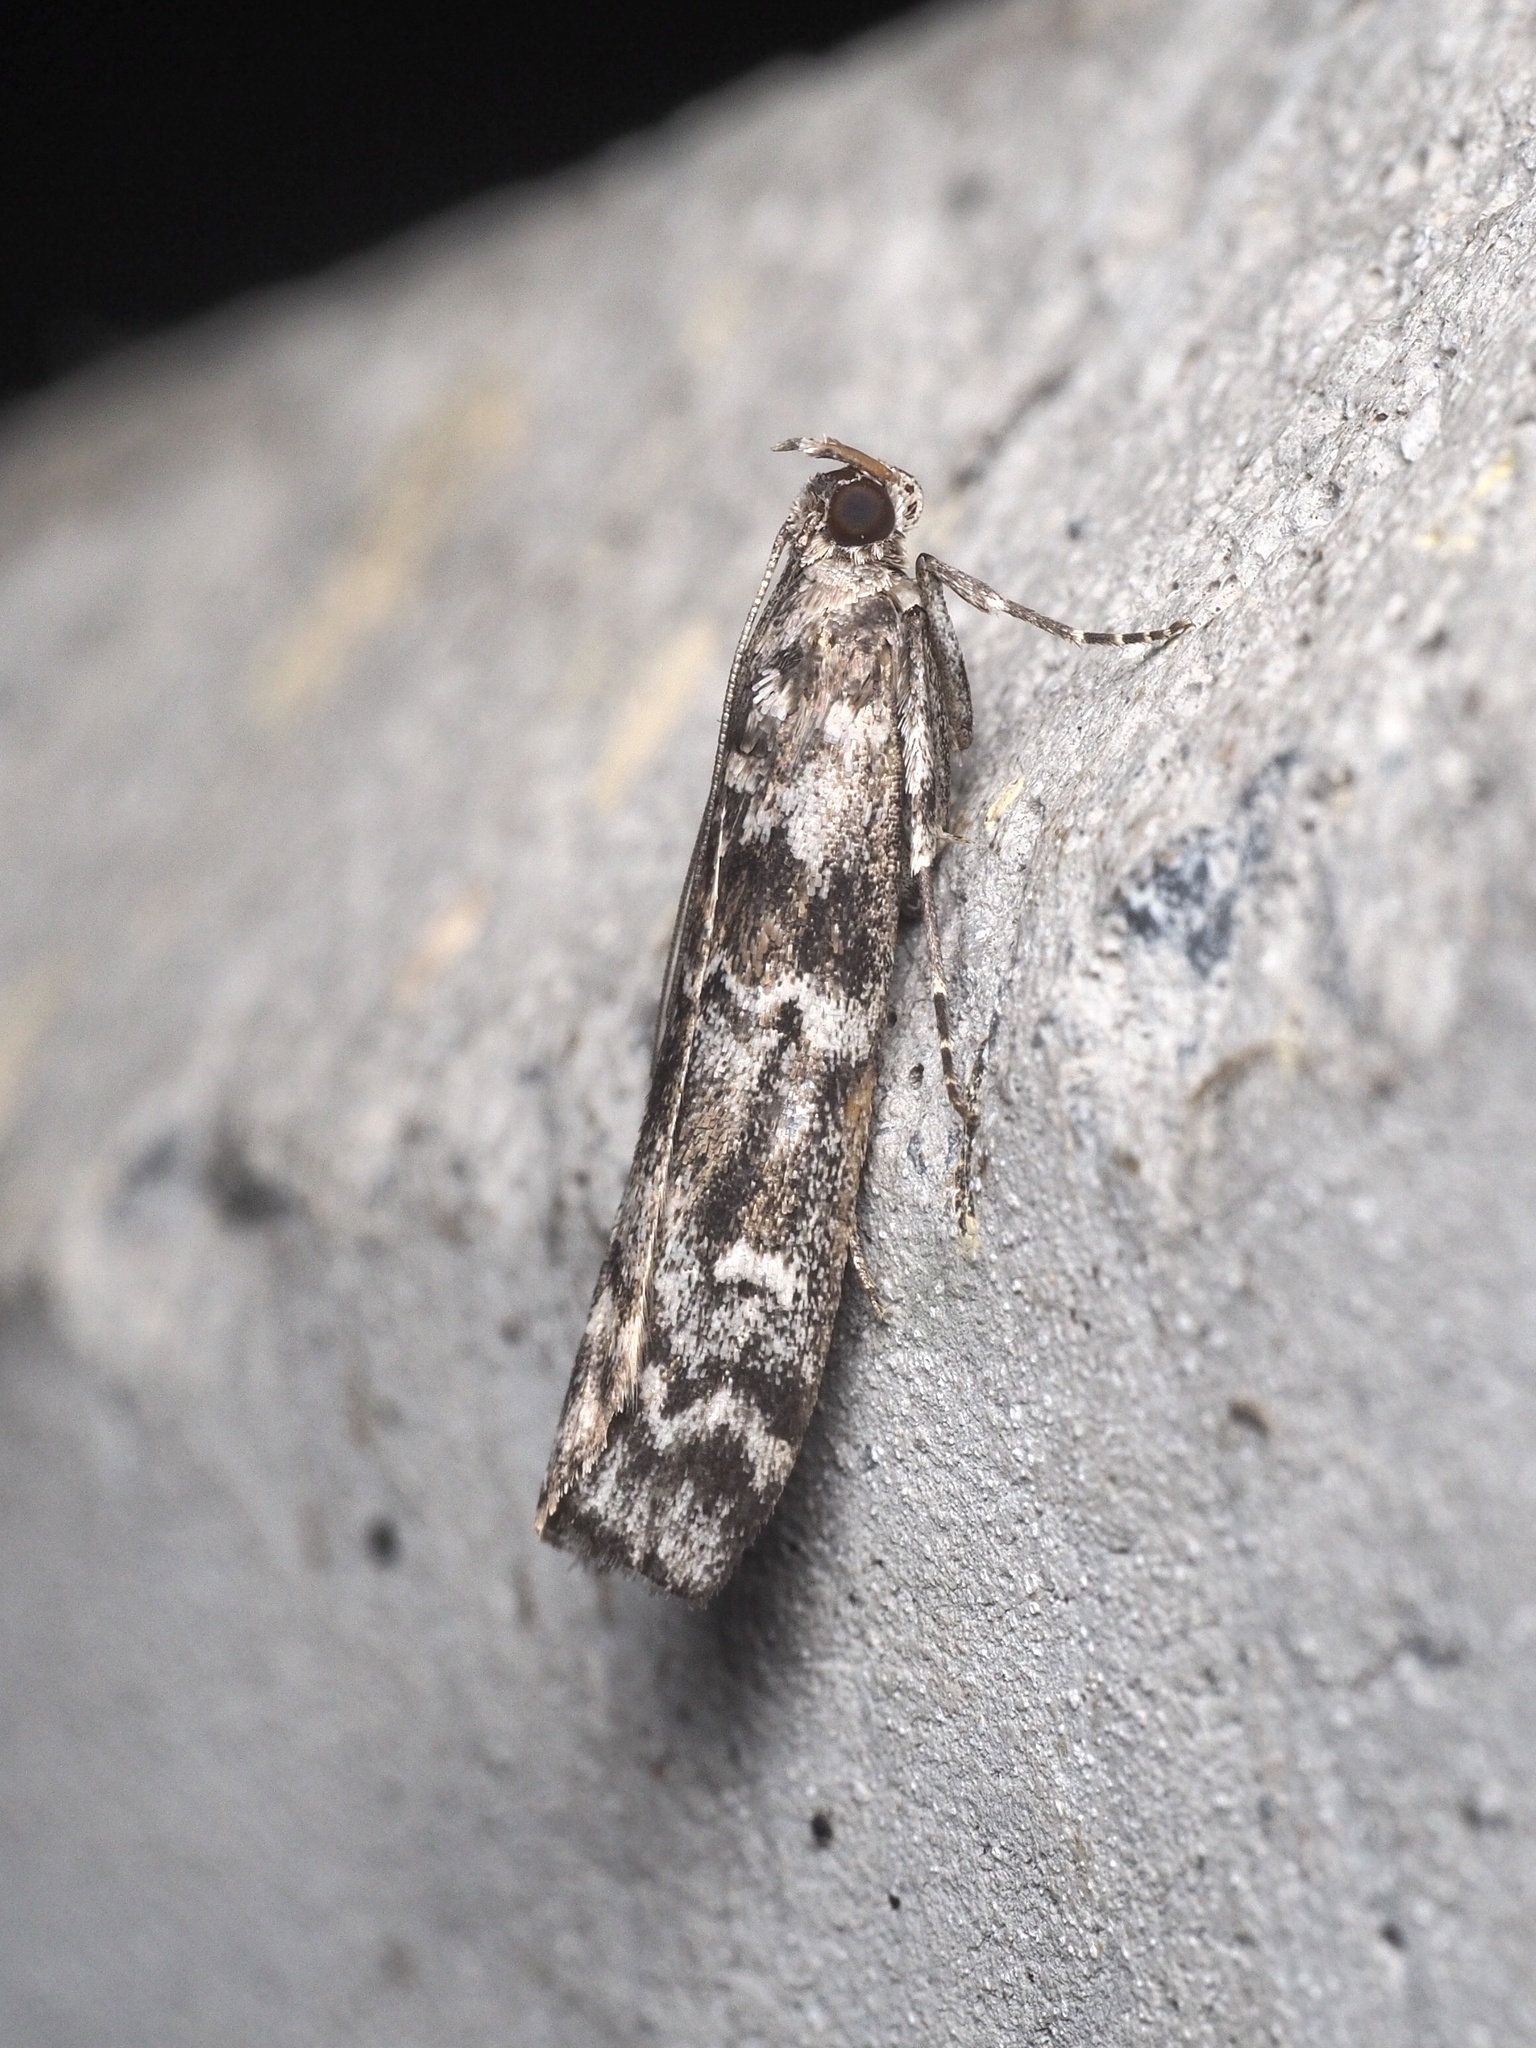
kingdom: Animalia
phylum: Arthropoda
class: Insecta
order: Lepidoptera
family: Pyralidae
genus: Dioryctria
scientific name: Dioryctria abietella
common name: Dark pine knot-horn
